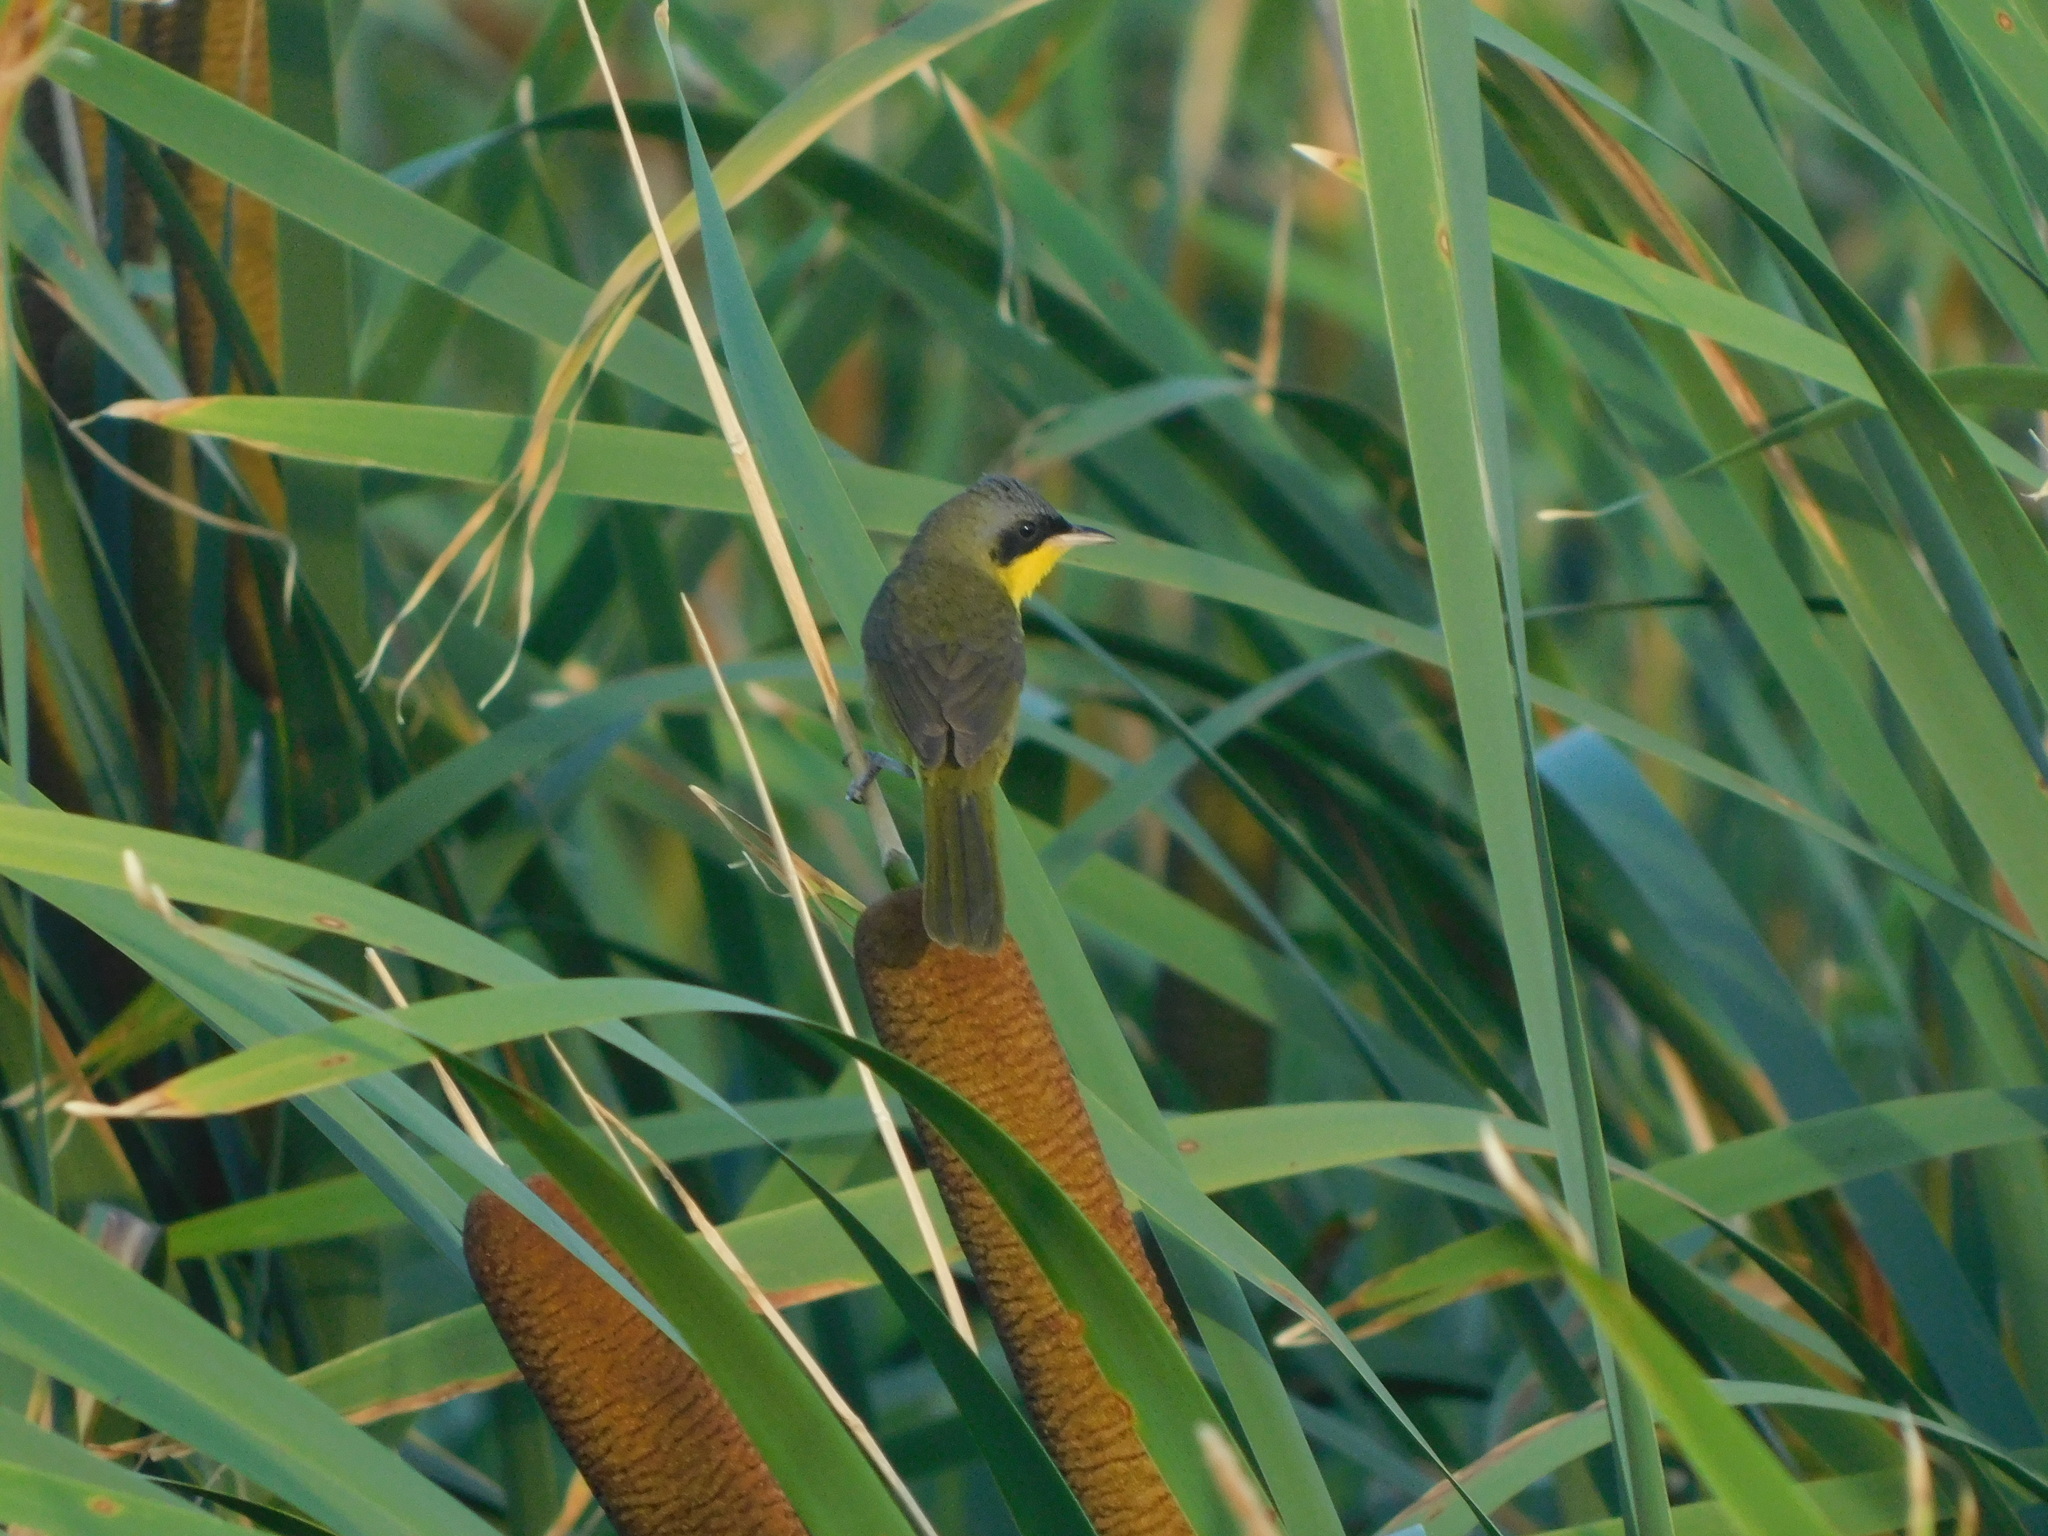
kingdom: Animalia
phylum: Chordata
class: Aves
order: Passeriformes
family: Parulidae
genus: Geothlypis
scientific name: Geothlypis velata
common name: Southern yellowthroat
